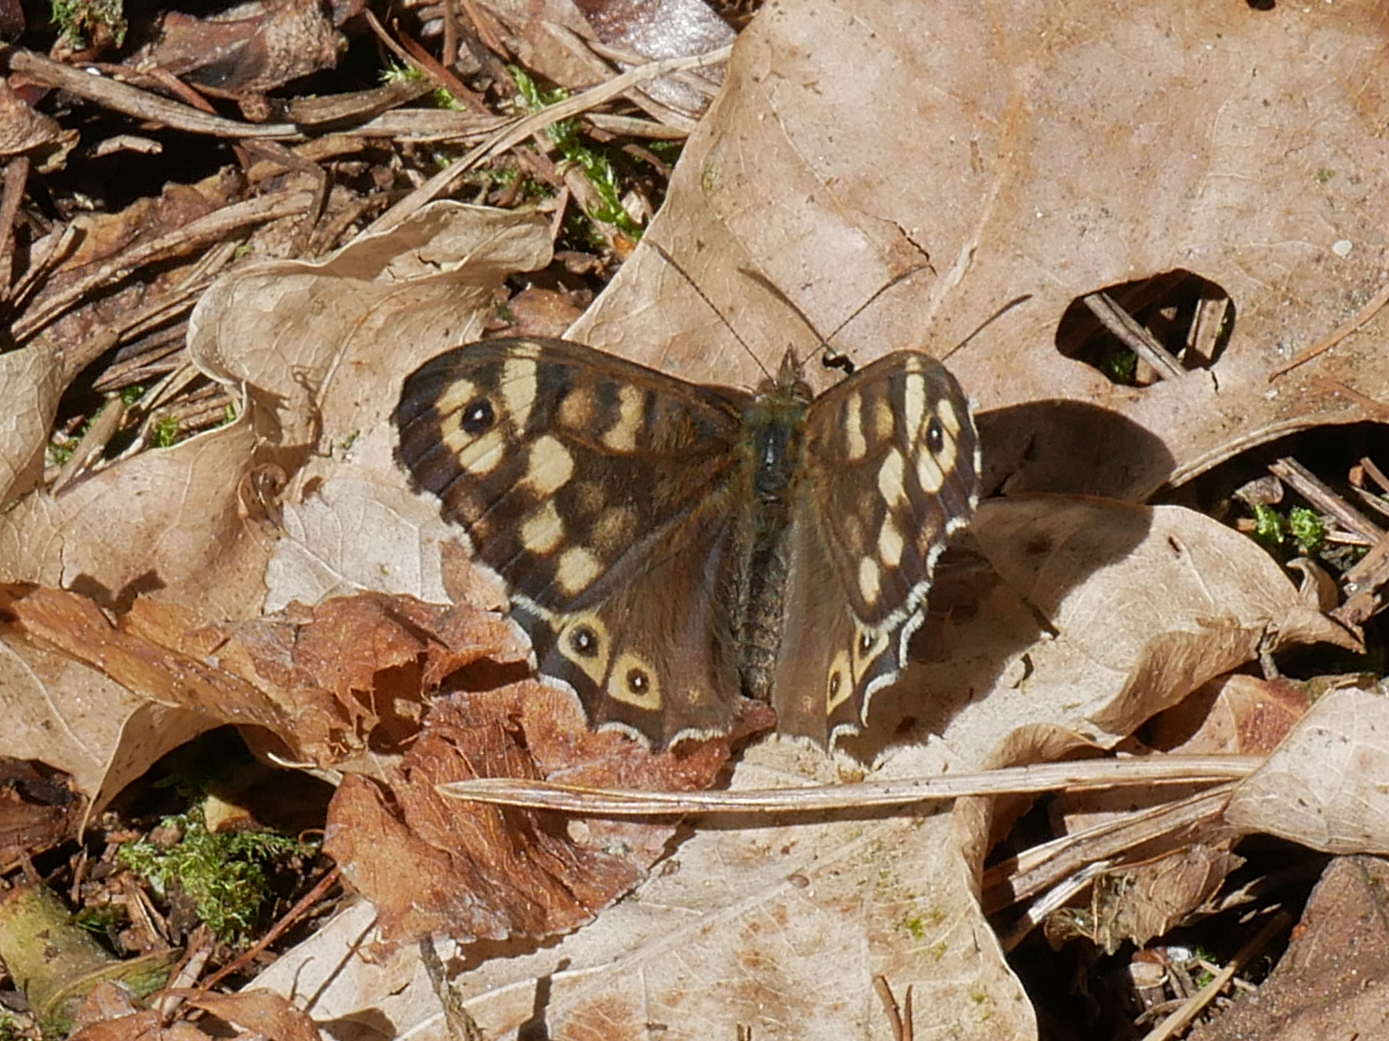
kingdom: Animalia
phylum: Arthropoda
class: Insecta
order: Lepidoptera
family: Nymphalidae
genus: Pararge
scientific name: Pararge aegeria
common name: Speckled wood
